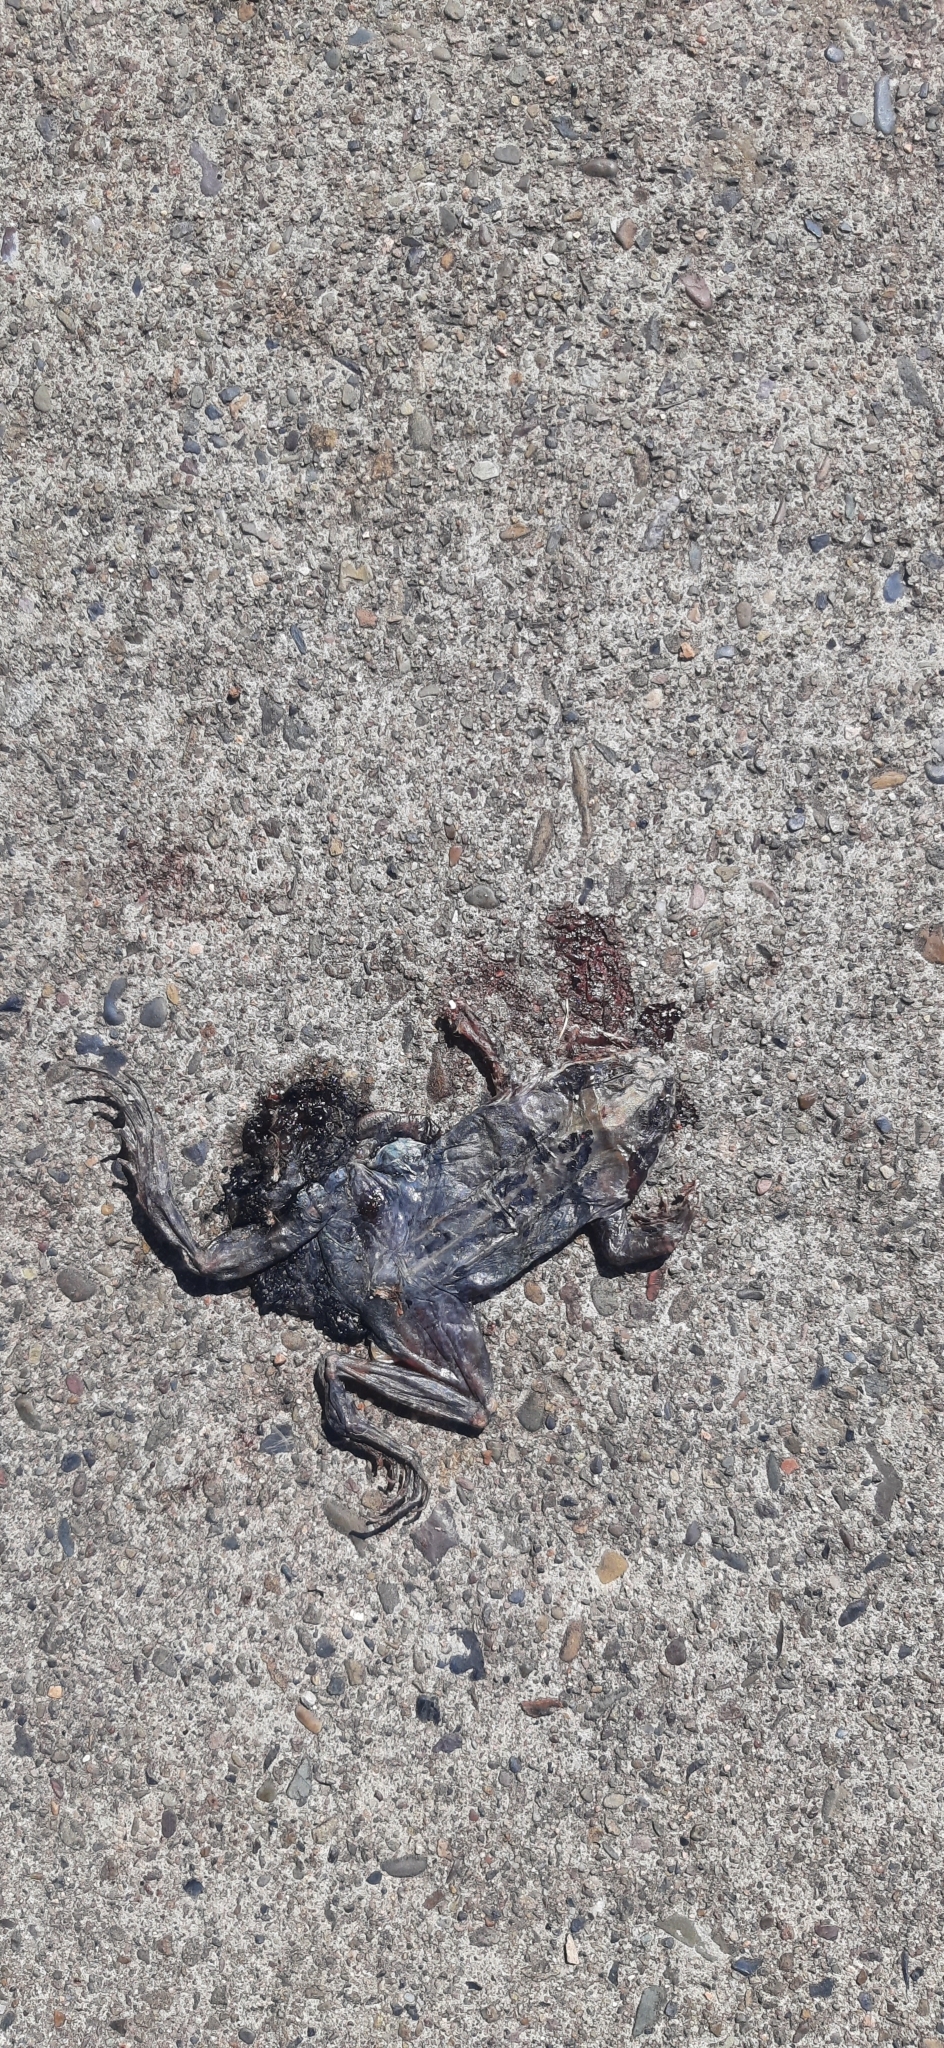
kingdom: Animalia
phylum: Chordata
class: Amphibia
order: Anura
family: Ranidae
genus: Rana
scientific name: Rana temporaria
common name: Common frog
